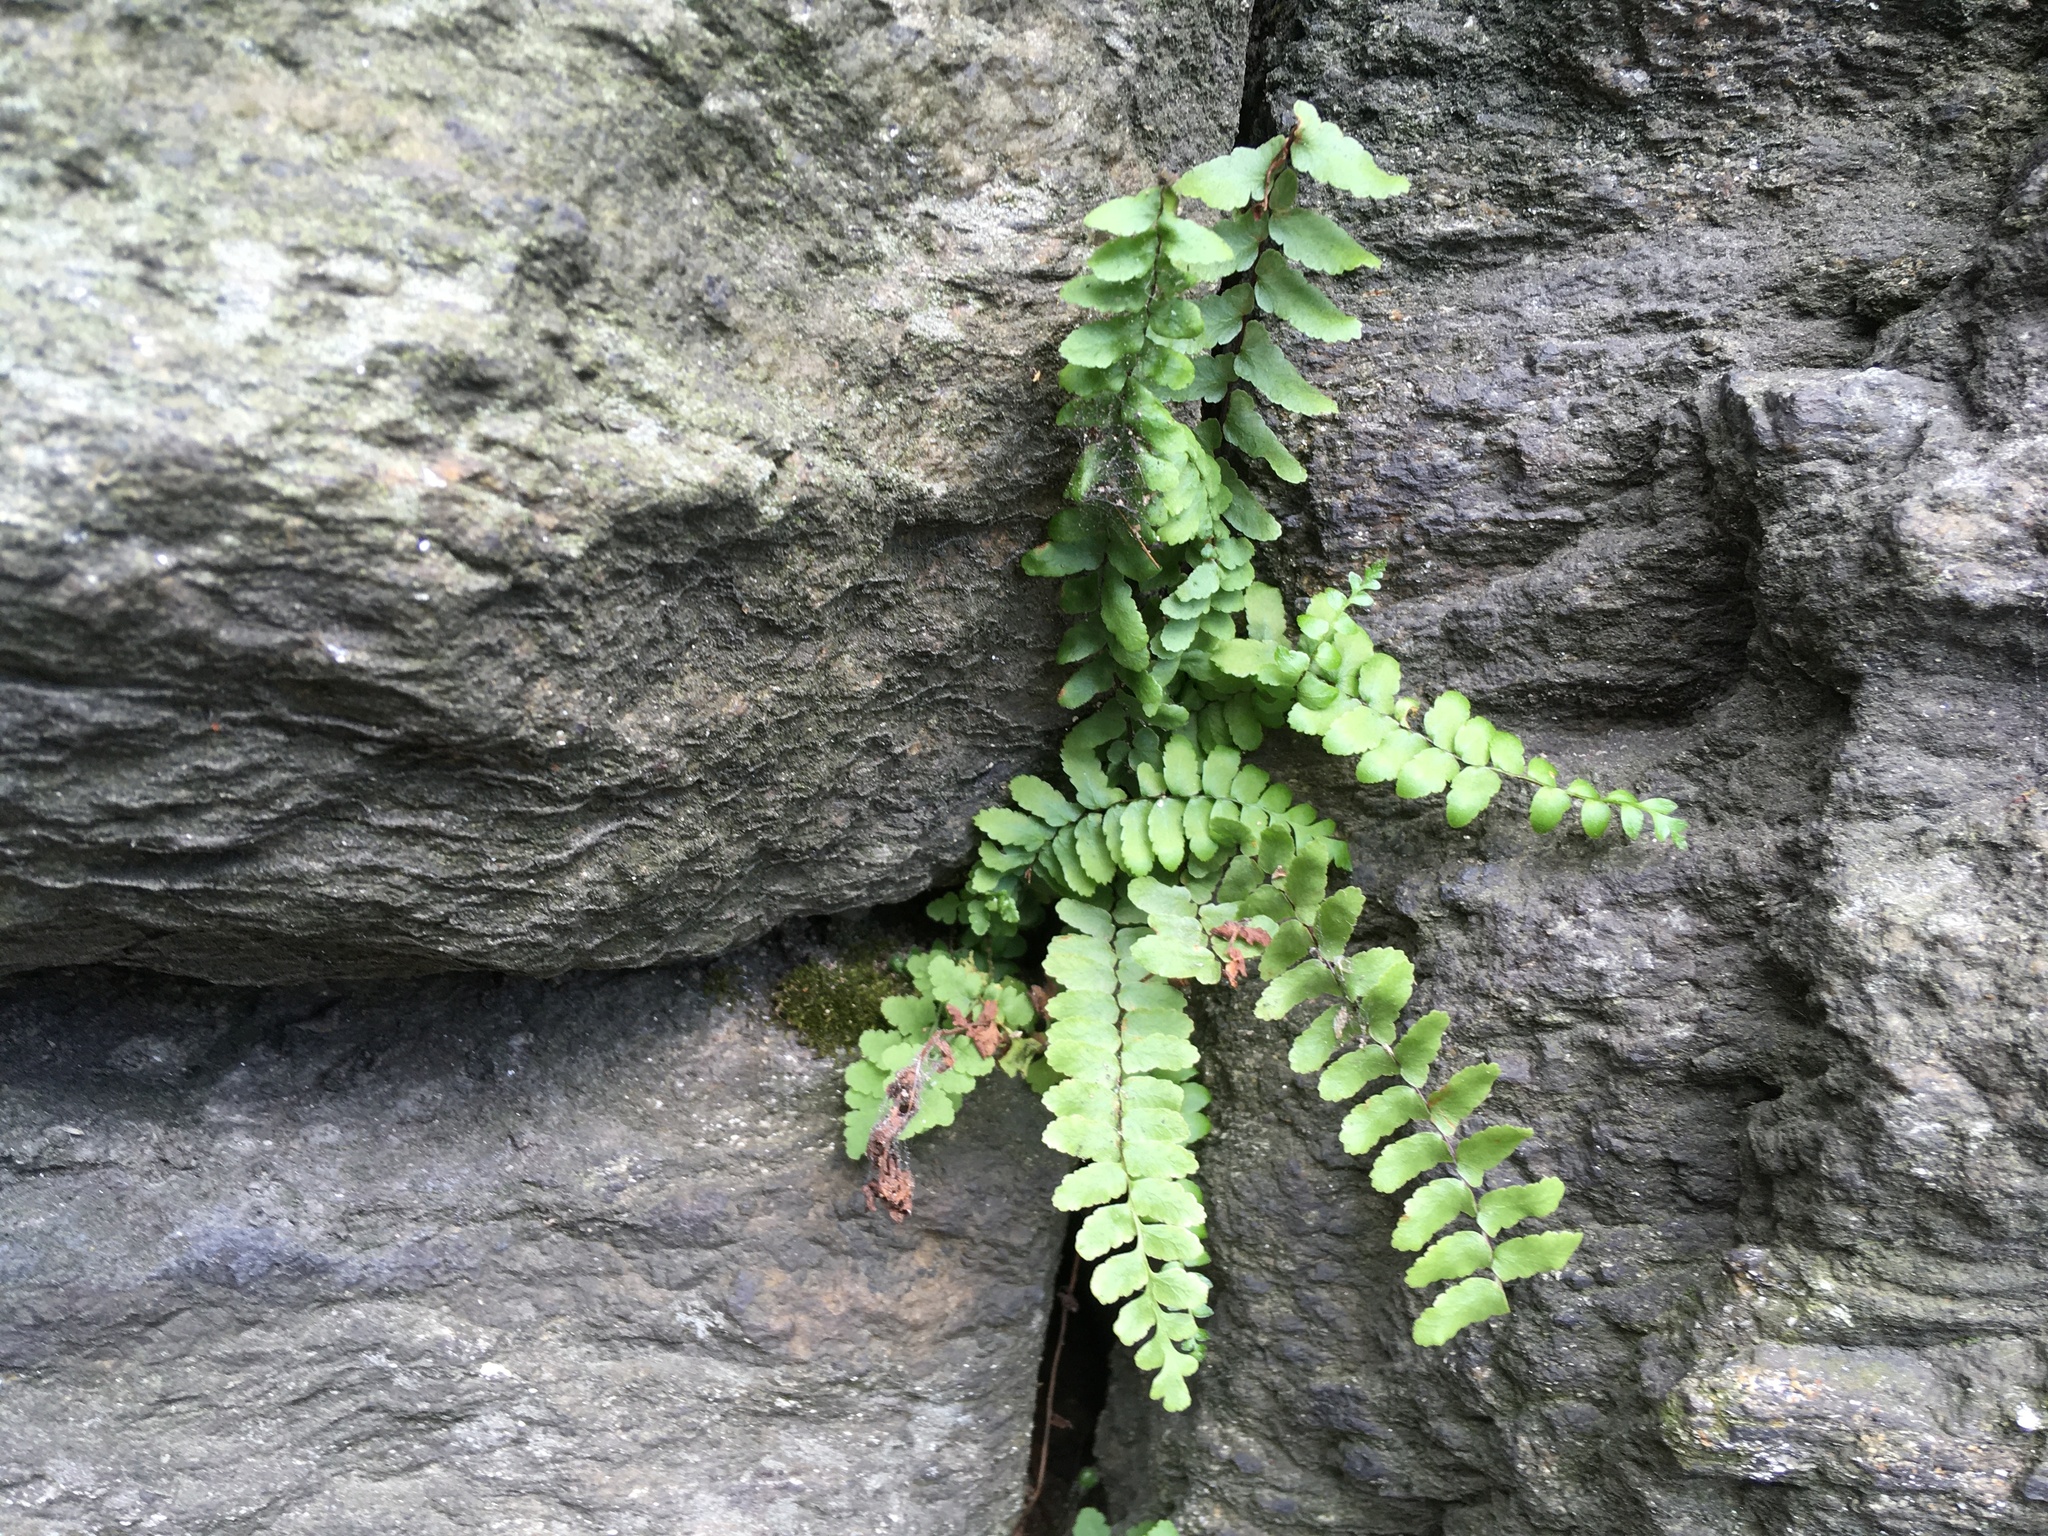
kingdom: Plantae
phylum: Tracheophyta
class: Polypodiopsida
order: Polypodiales
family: Aspleniaceae
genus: Asplenium
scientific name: Asplenium platyneuron
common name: Ebony spleenwort
